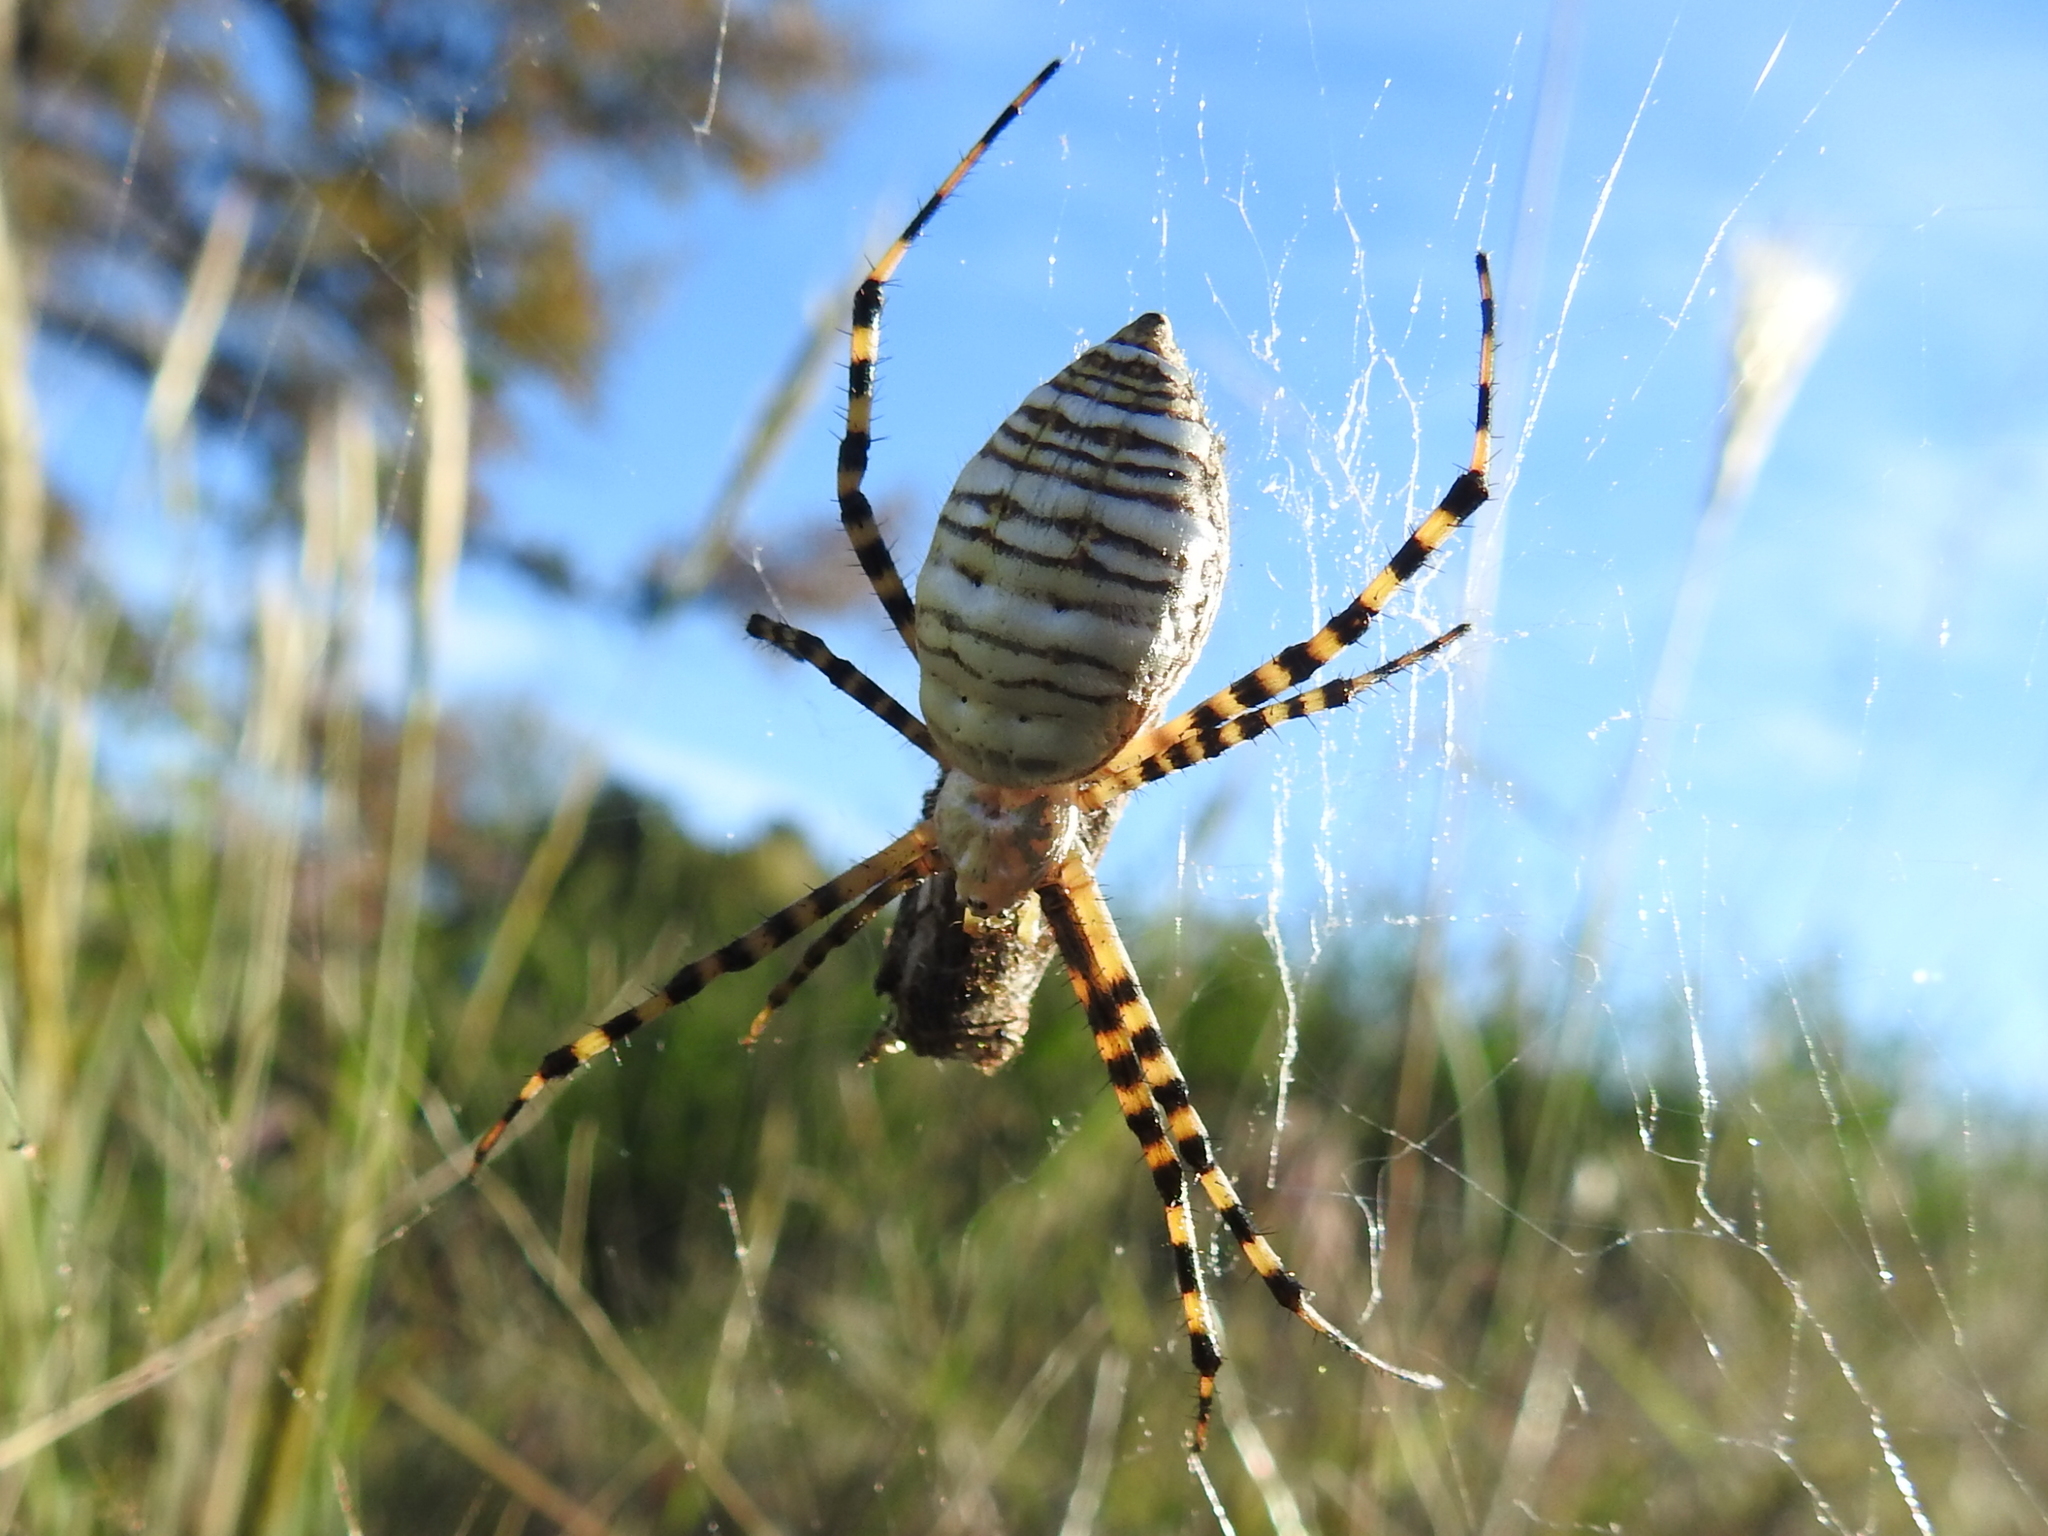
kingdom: Animalia
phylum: Arthropoda
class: Arachnida
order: Araneae
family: Araneidae
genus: Argiope
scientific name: Argiope trifasciata
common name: Banded garden spider
